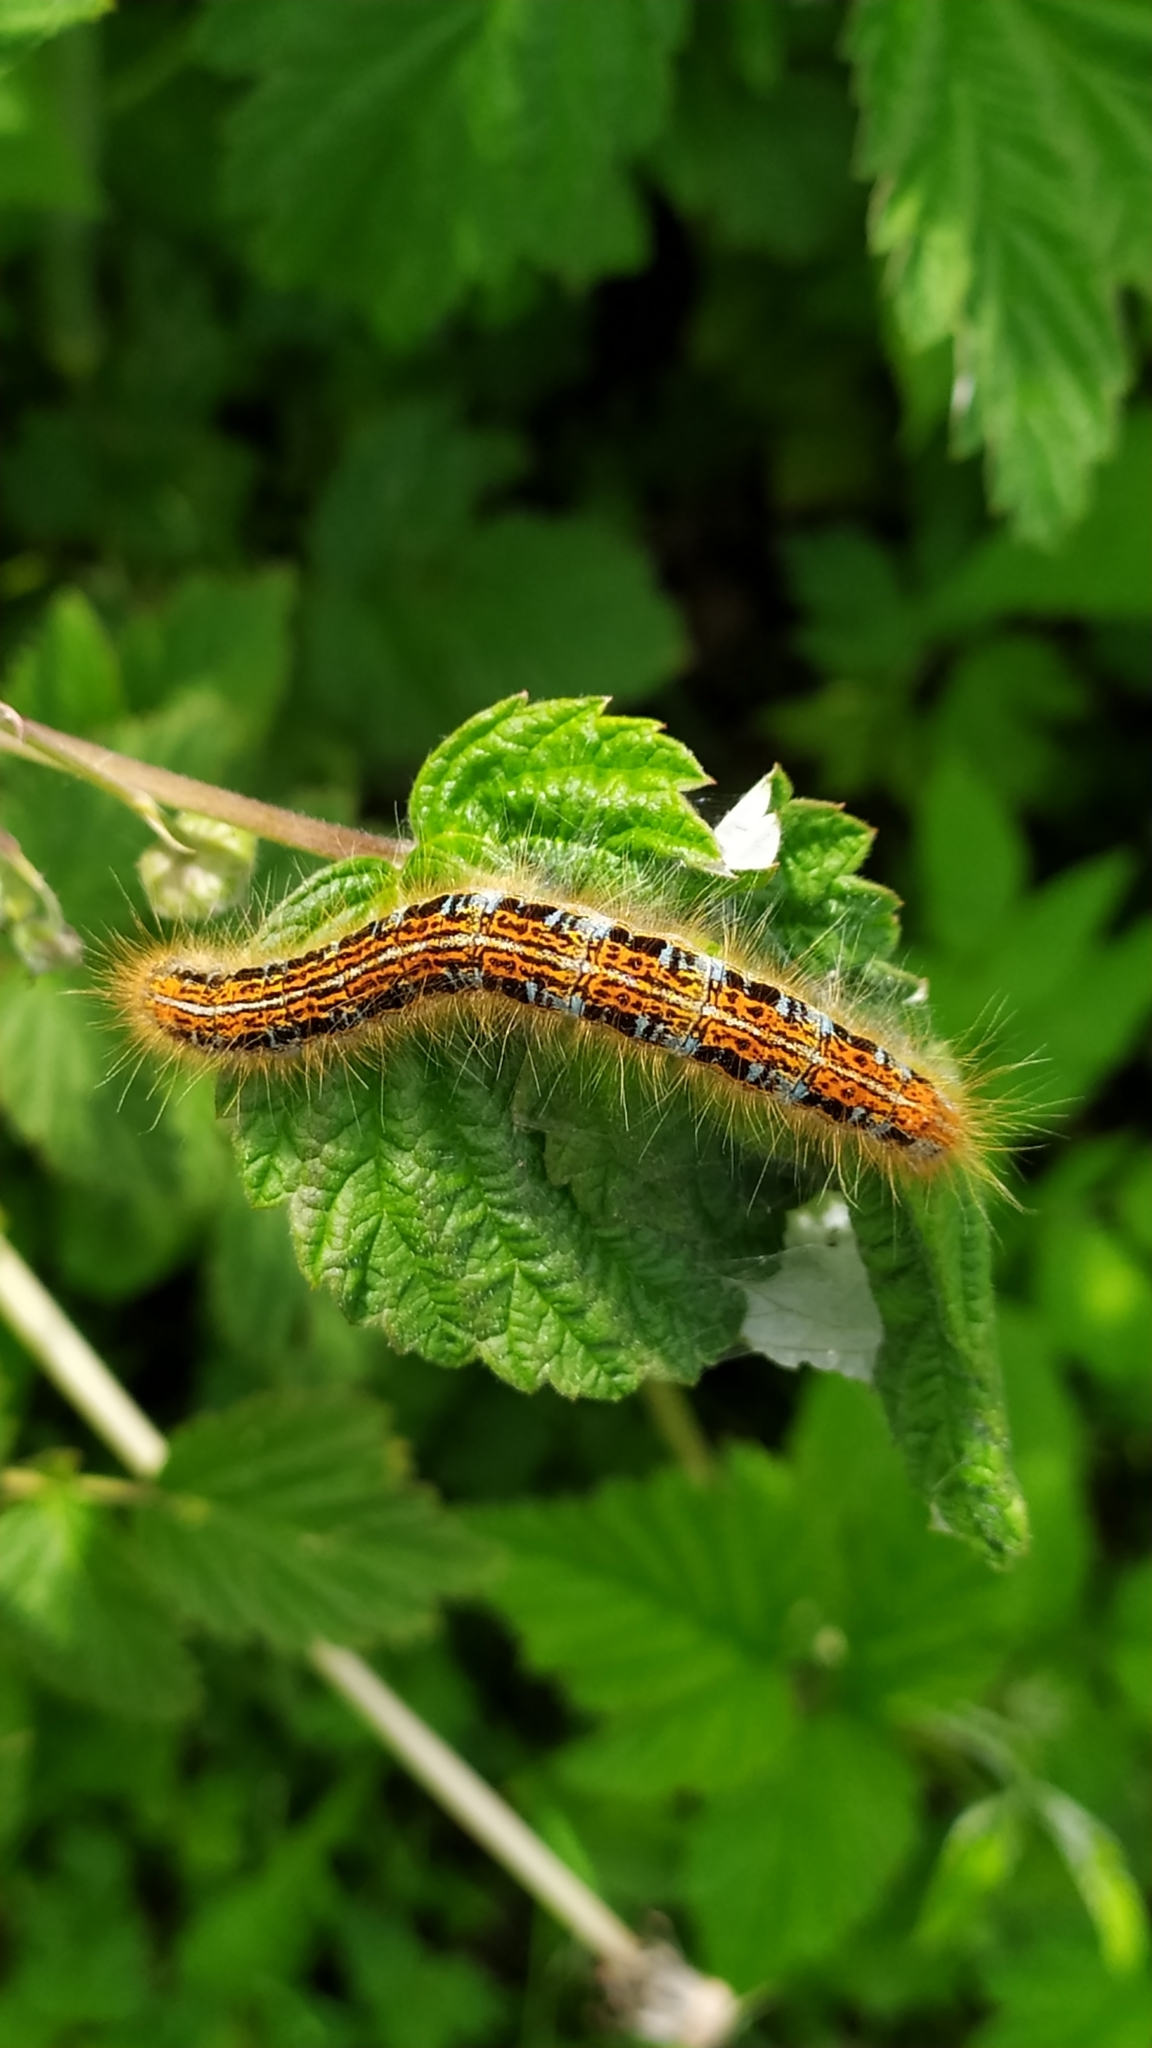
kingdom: Animalia
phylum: Arthropoda
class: Insecta
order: Lepidoptera
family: Lasiocampidae
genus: Malacosoma
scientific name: Malacosoma castrense
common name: Ground lackey
